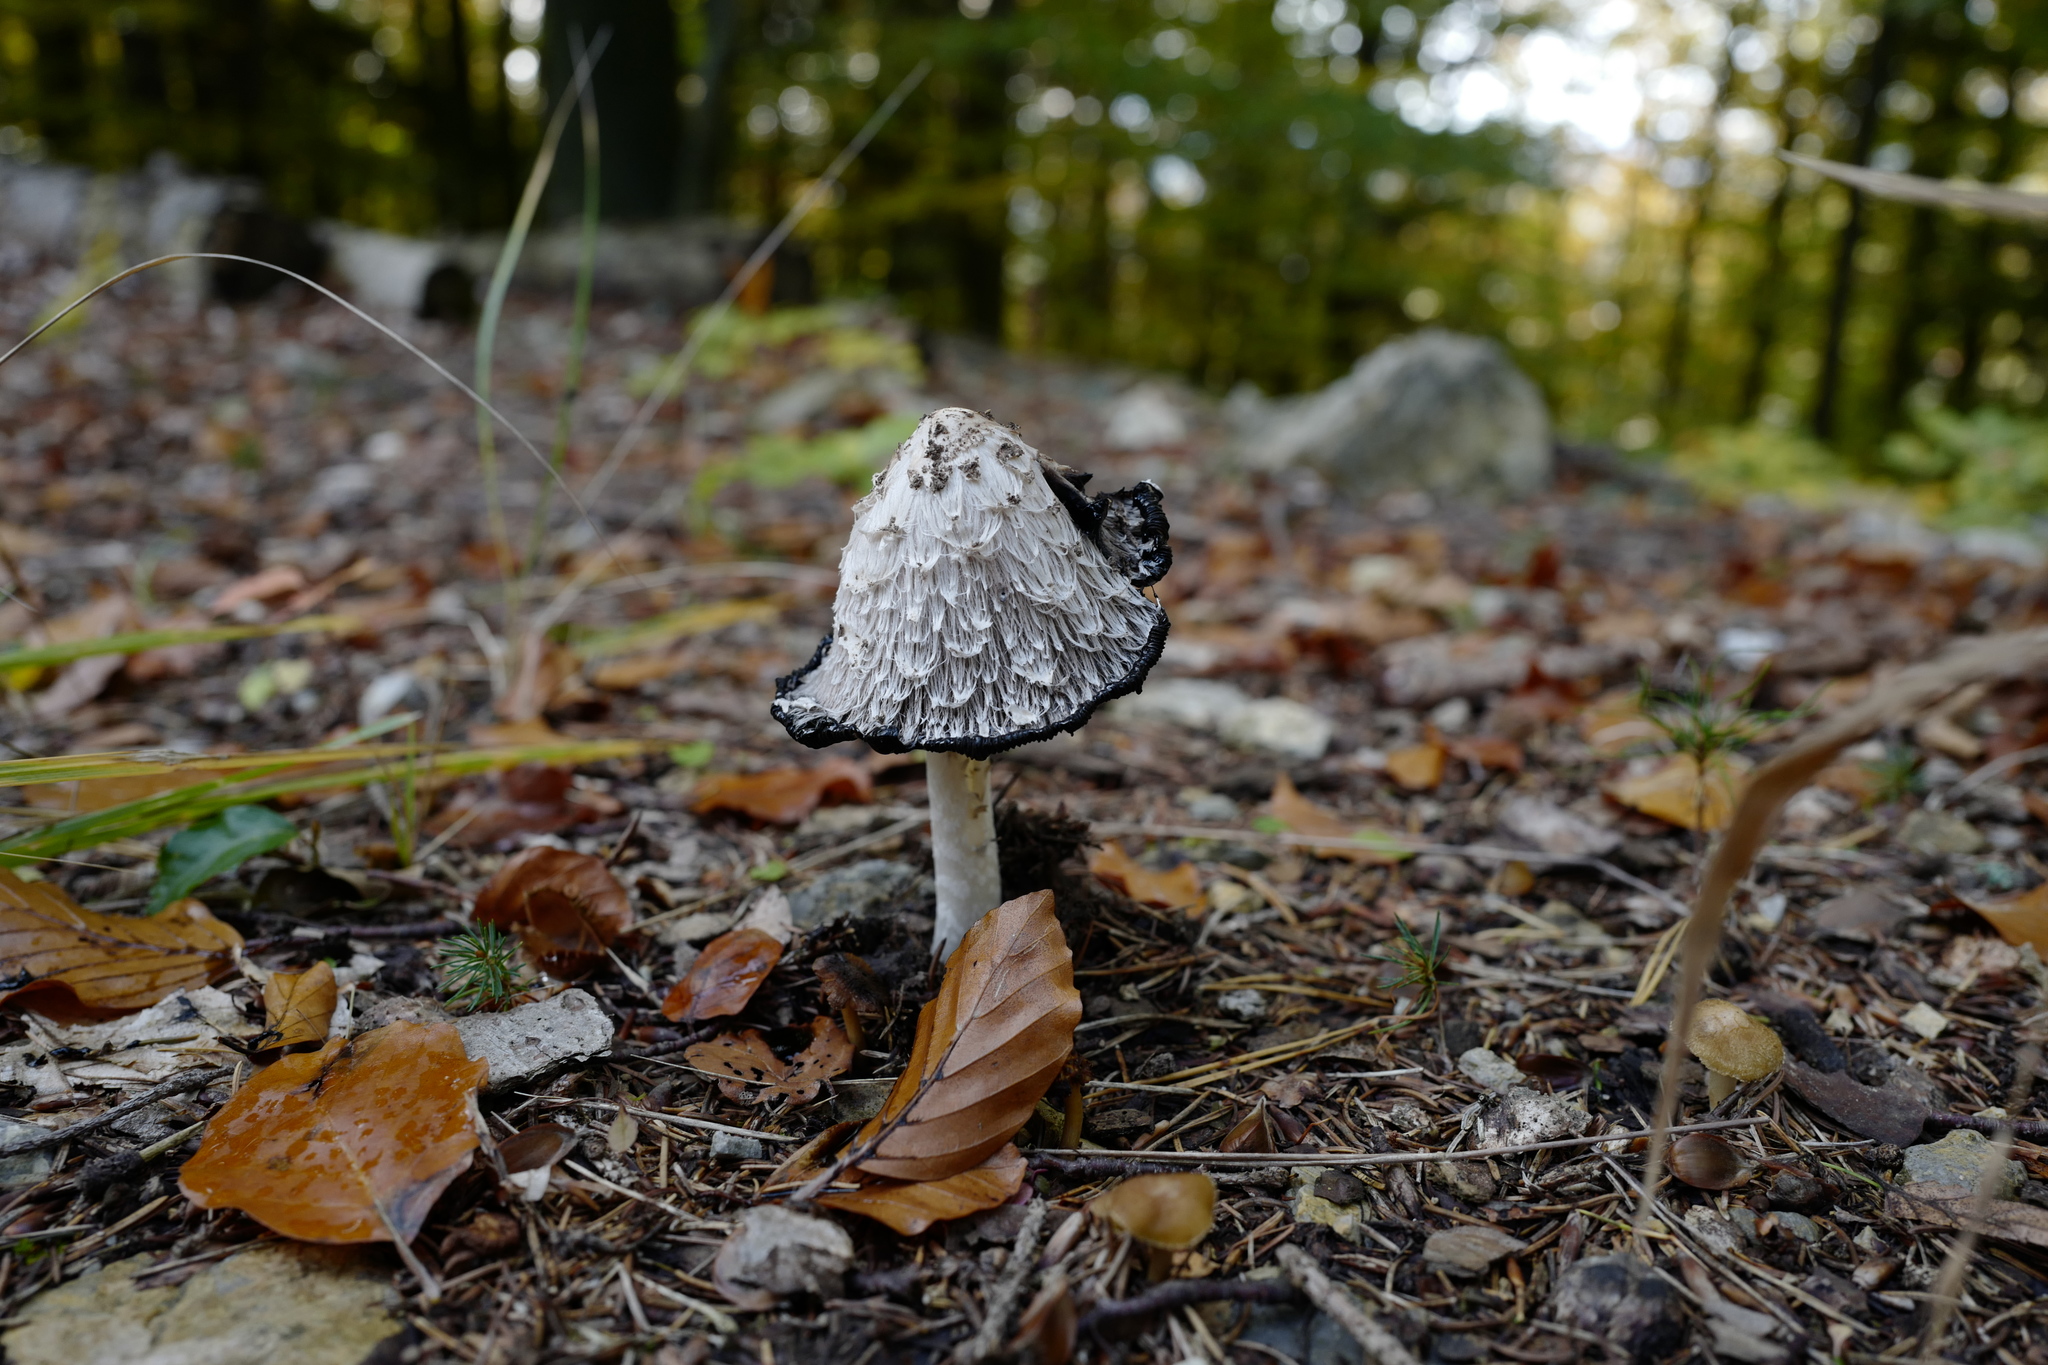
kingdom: Fungi
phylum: Basidiomycota
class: Agaricomycetes
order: Agaricales
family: Agaricaceae
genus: Coprinus
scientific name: Coprinus comatus
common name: Lawyer's wig
